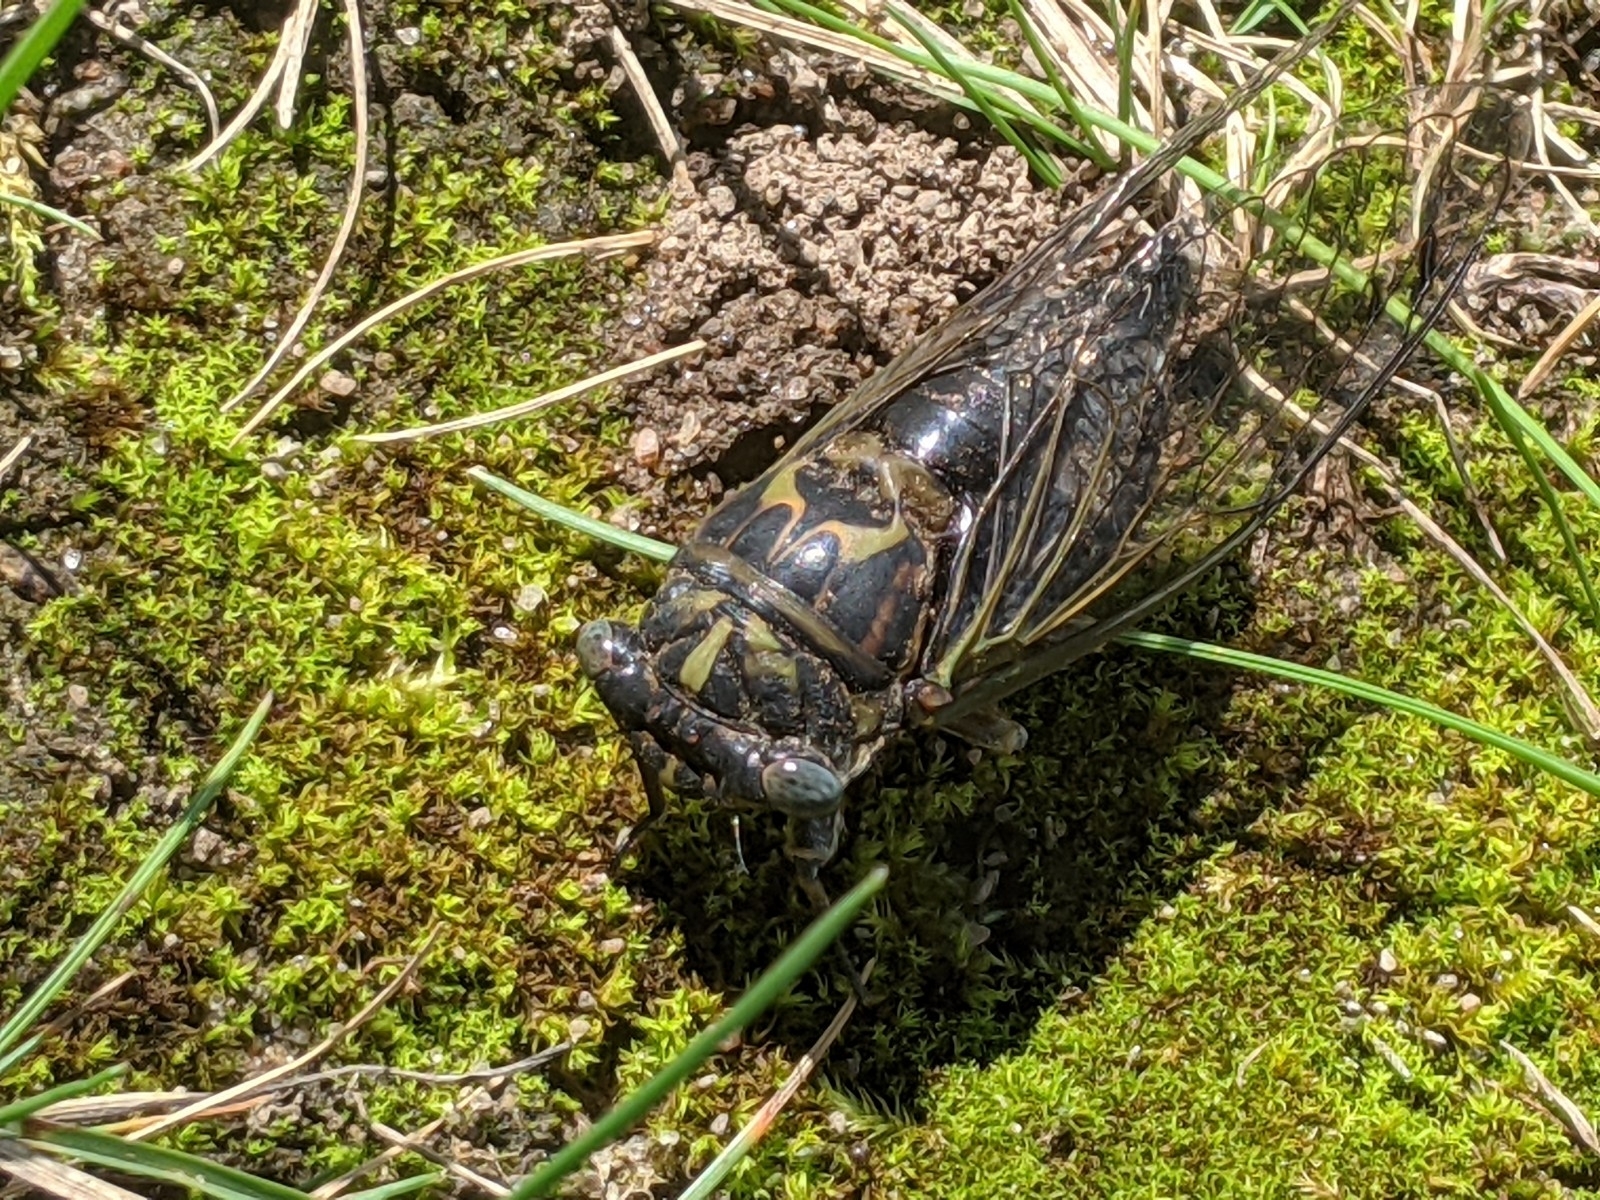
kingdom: Animalia
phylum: Arthropoda
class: Insecta
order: Hemiptera
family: Cicadidae
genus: Neotibicen
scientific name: Neotibicen canicularis
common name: God-day cicada
